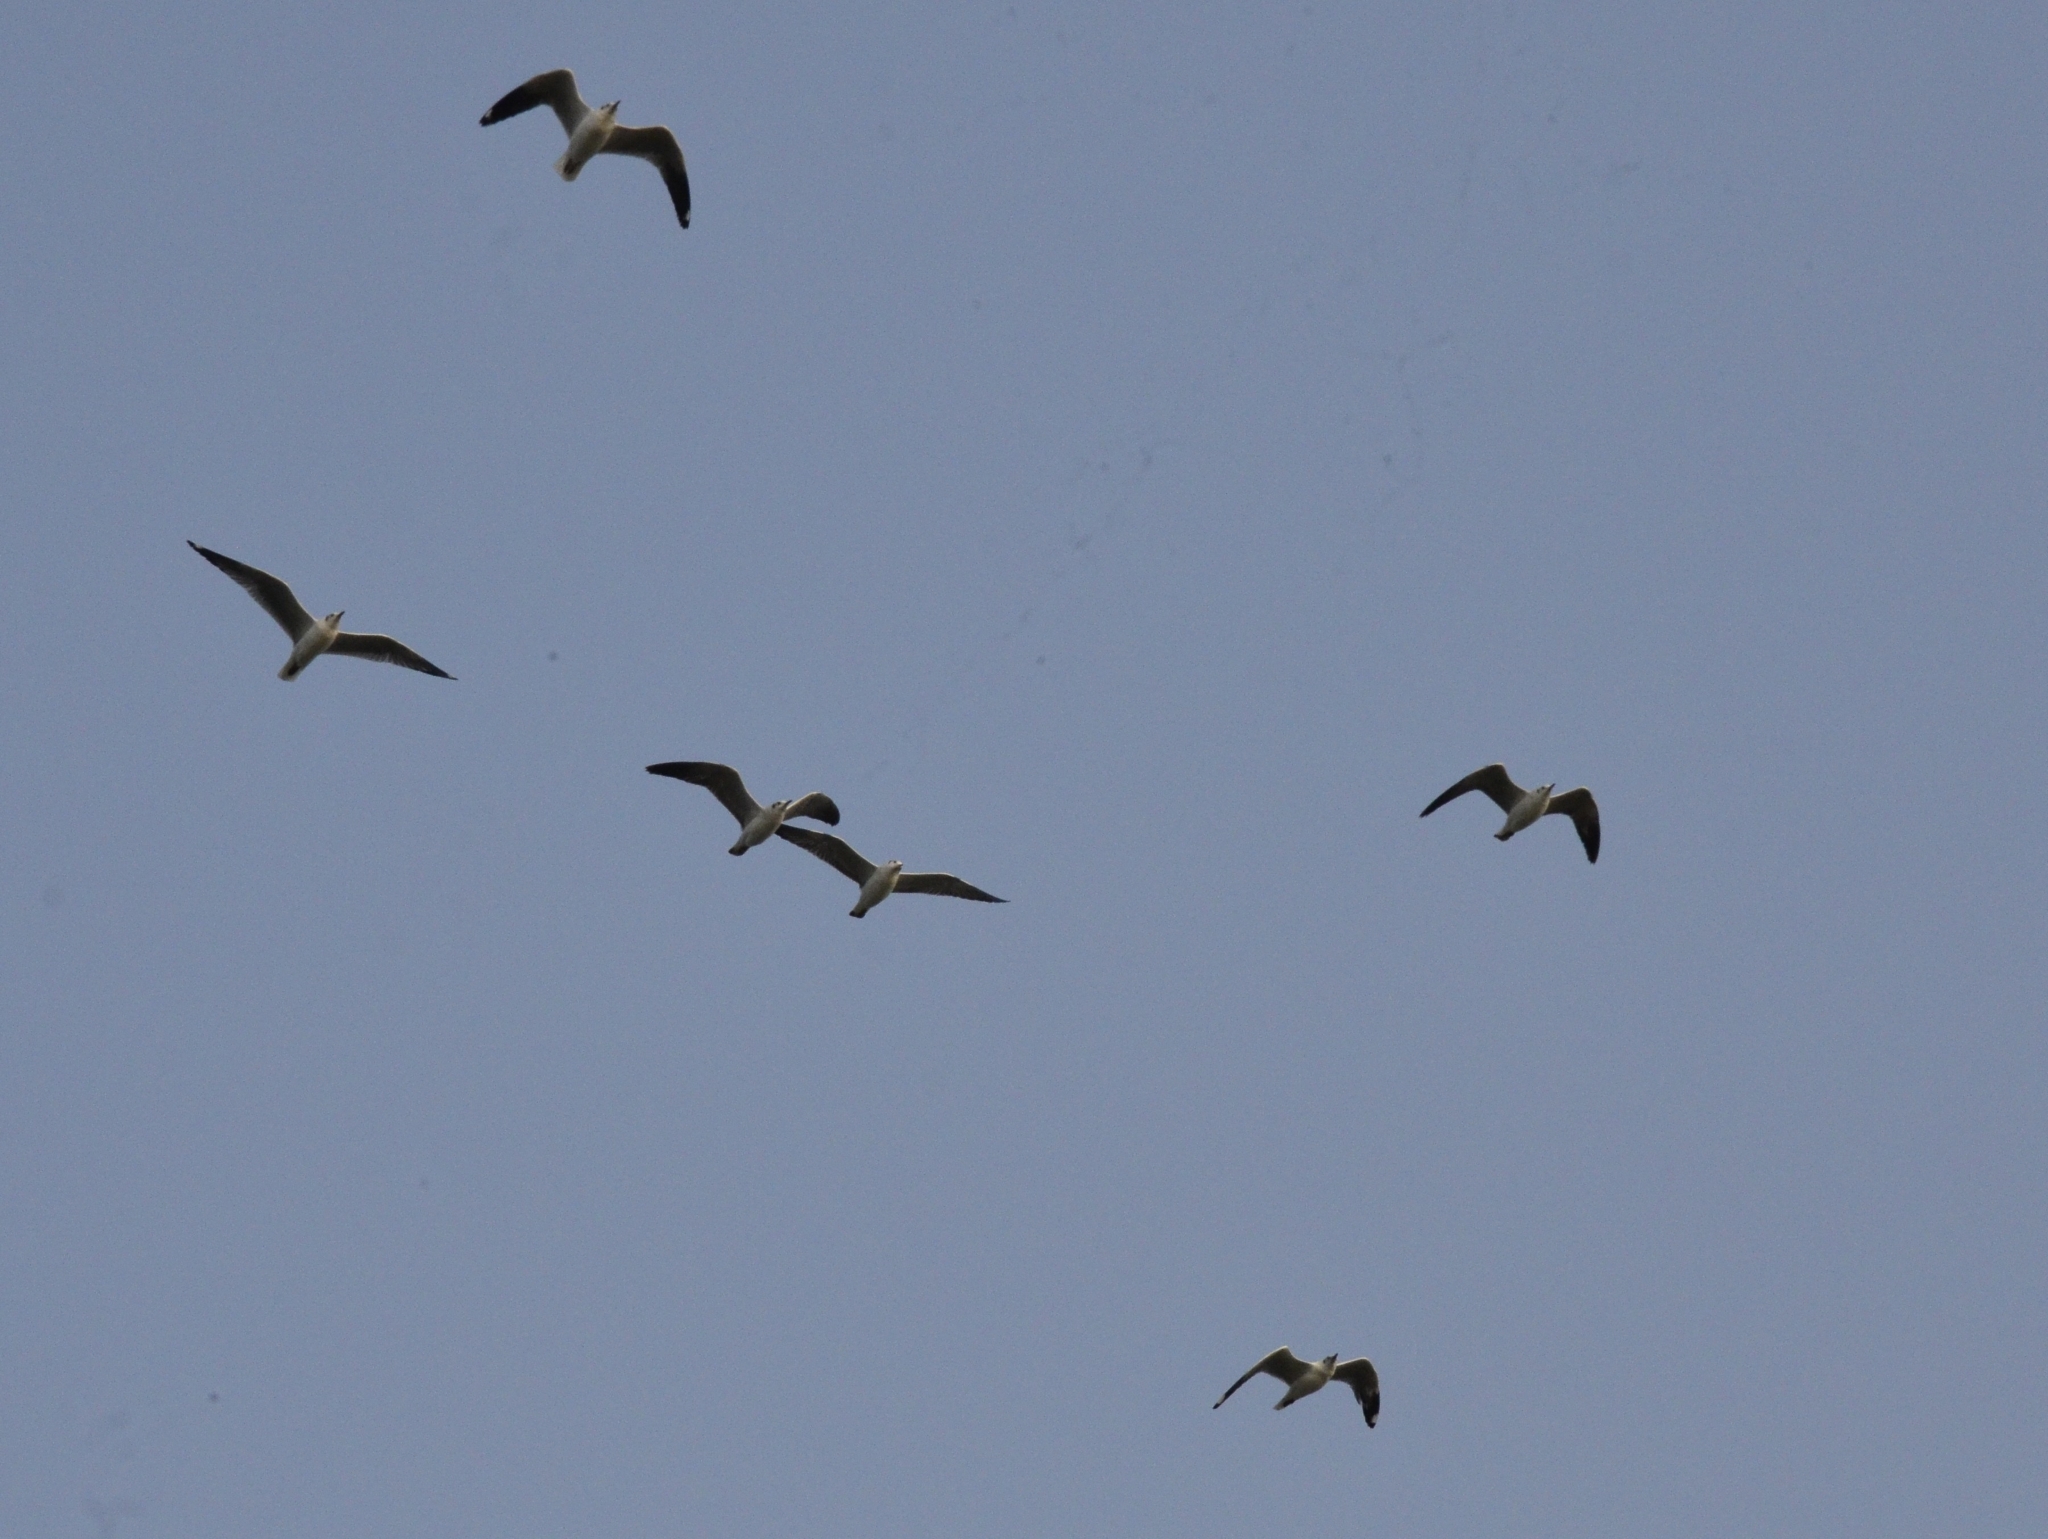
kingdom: Animalia
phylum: Chordata
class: Aves
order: Charadriiformes
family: Laridae
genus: Chroicocephalus
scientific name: Chroicocephalus brunnicephalus
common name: Brown-headed gull
